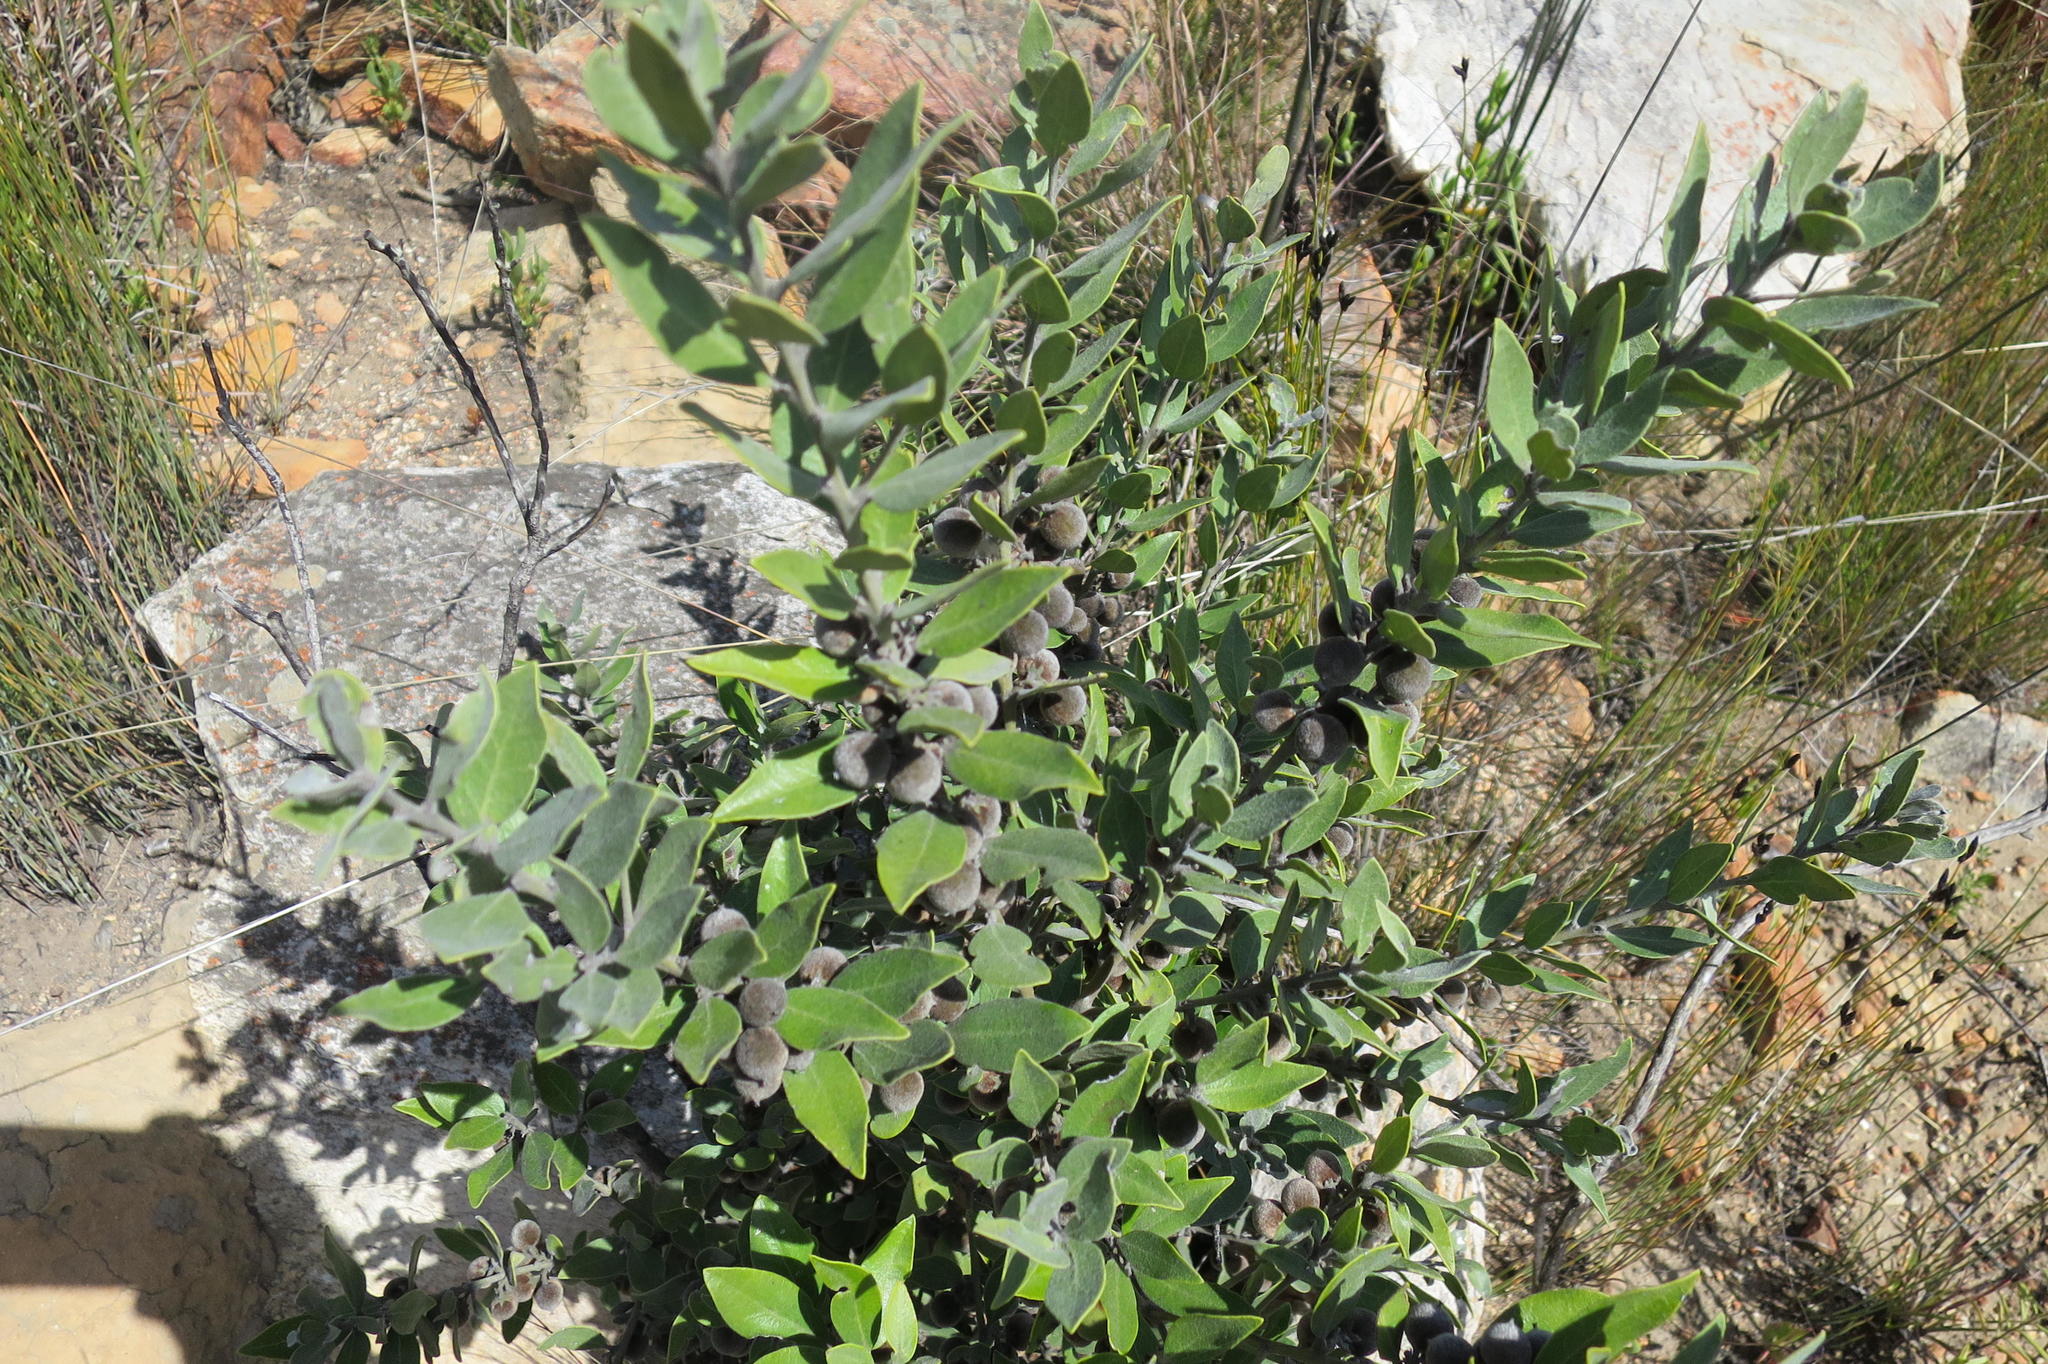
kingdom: Plantae
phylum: Tracheophyta
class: Magnoliopsida
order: Ericales
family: Ebenaceae
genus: Euclea
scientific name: Euclea polyandra
